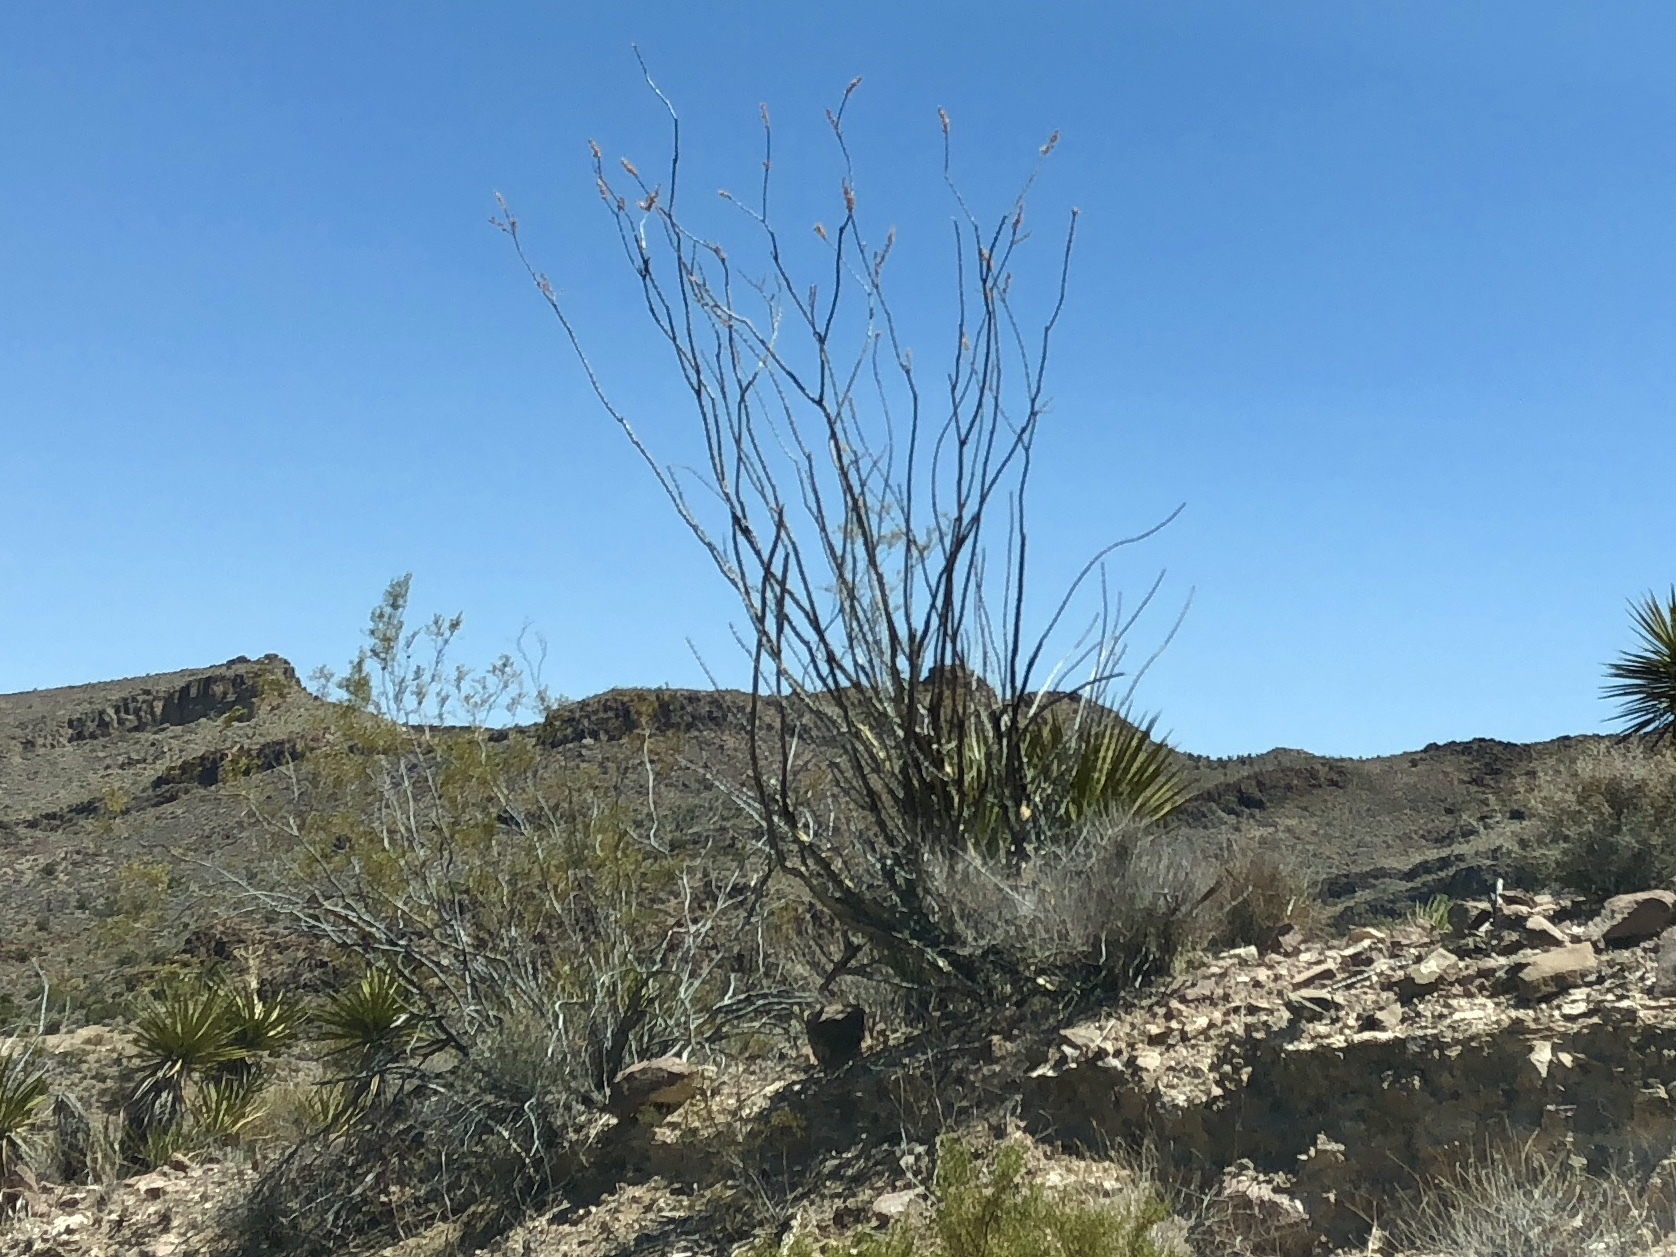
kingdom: Plantae
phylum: Tracheophyta
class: Magnoliopsida
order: Ericales
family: Fouquieriaceae
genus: Fouquieria
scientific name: Fouquieria splendens
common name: Vine-cactus
